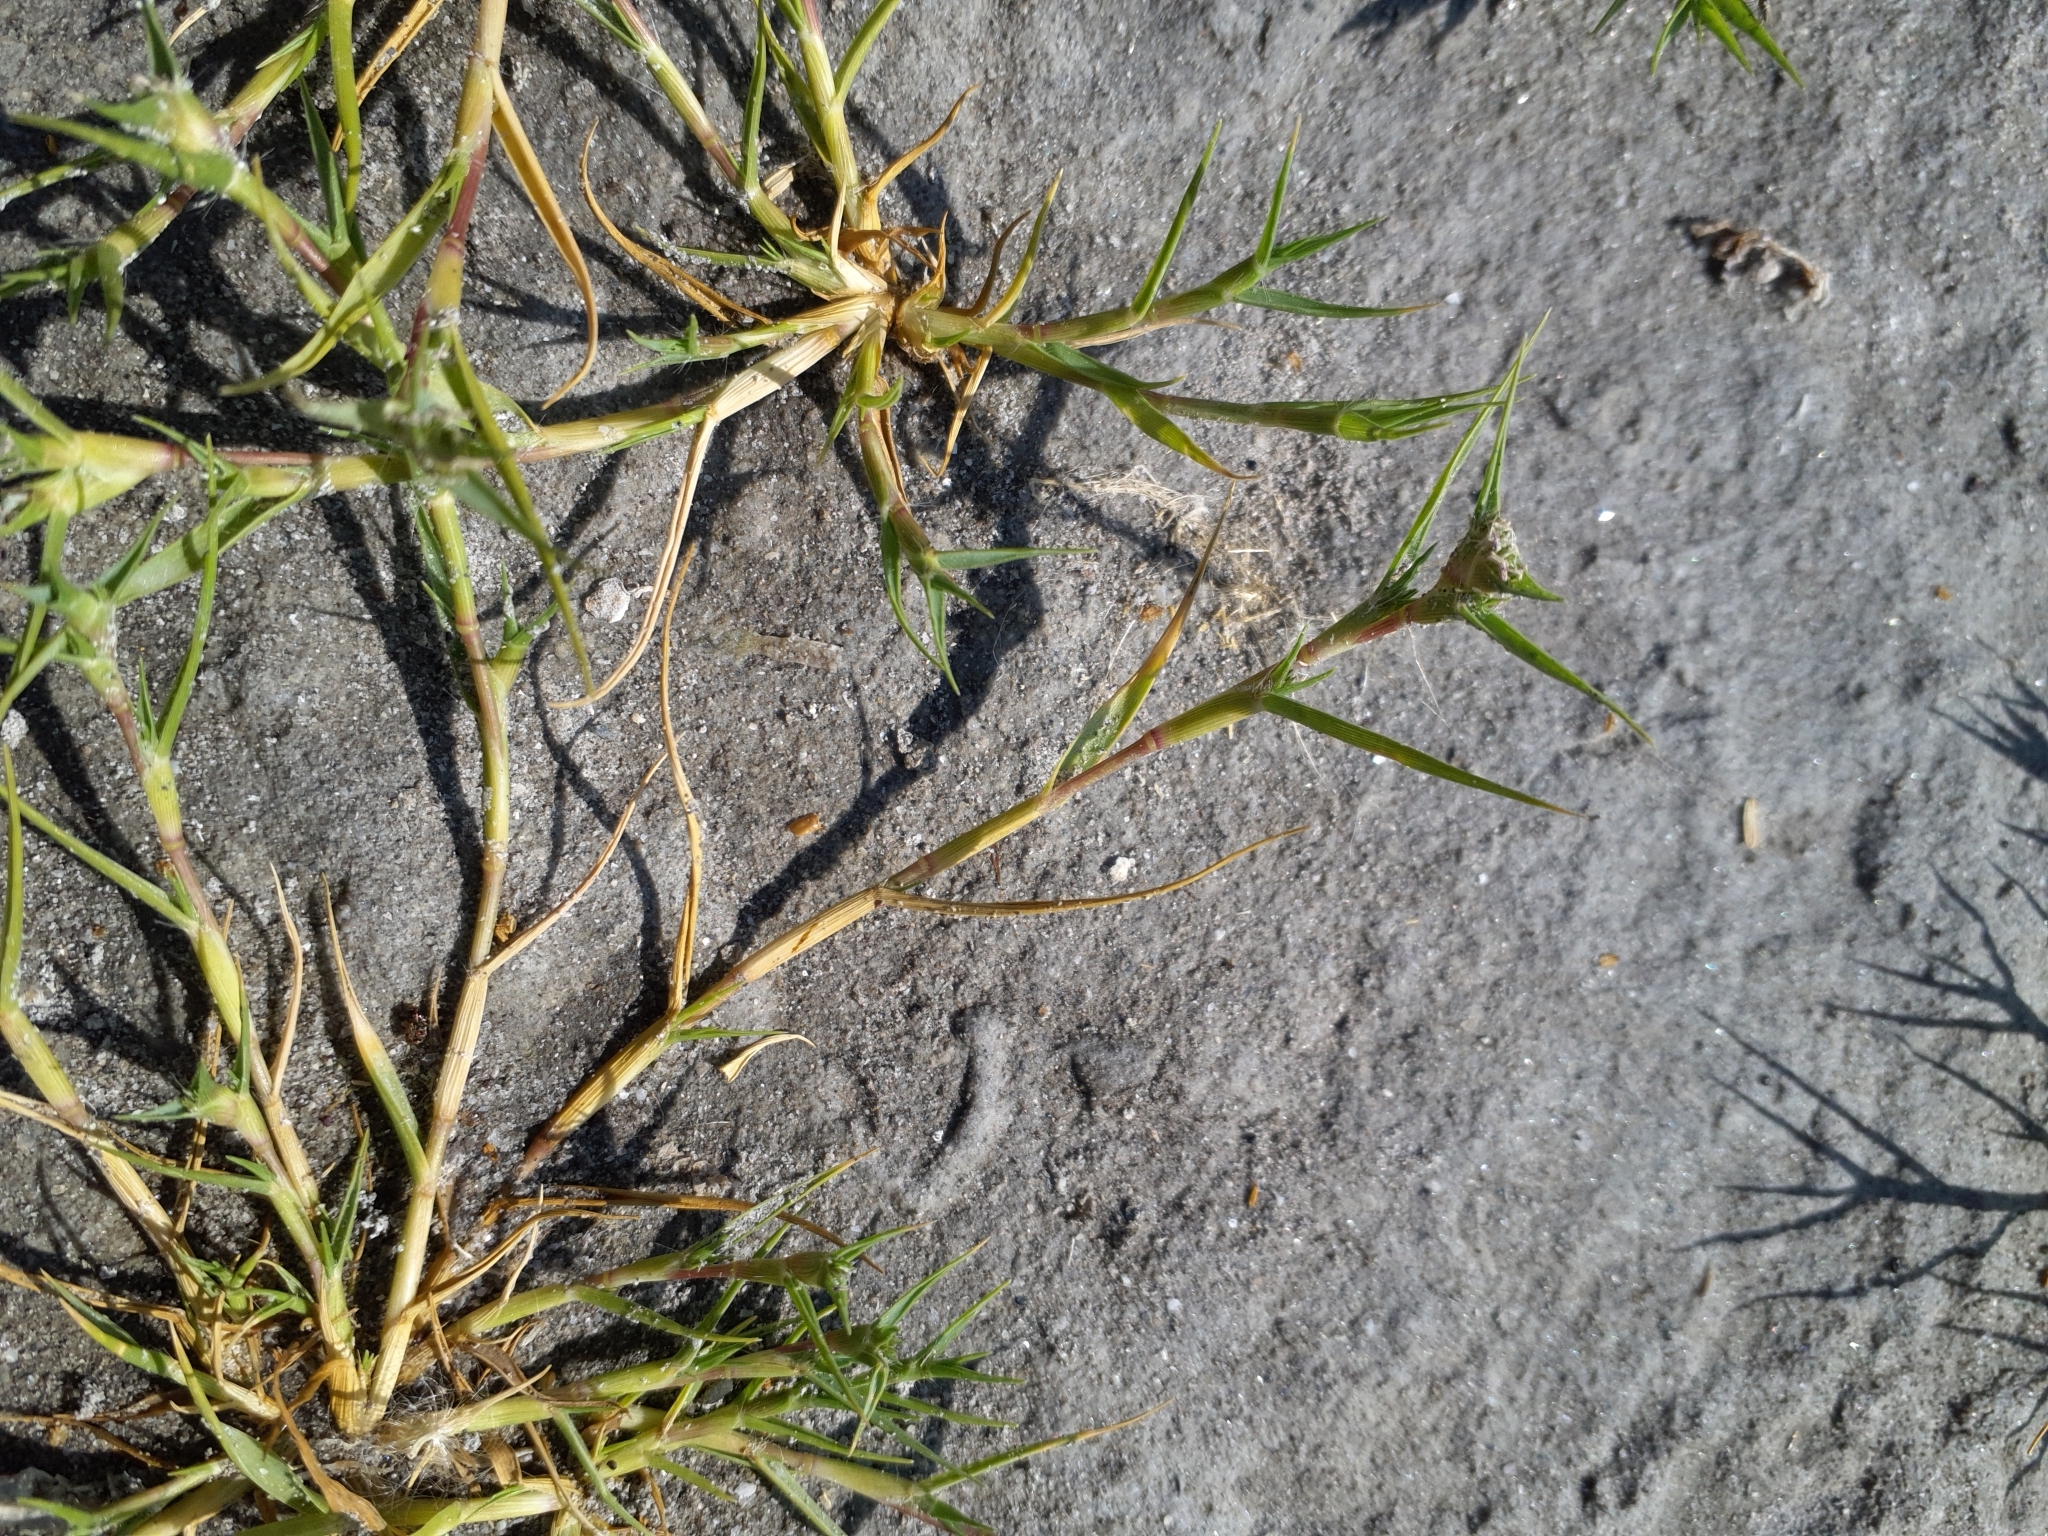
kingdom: Plantae
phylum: Tracheophyta
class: Liliopsida
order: Poales
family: Poaceae
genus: Sporobolus
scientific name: Sporobolus aculeatus
